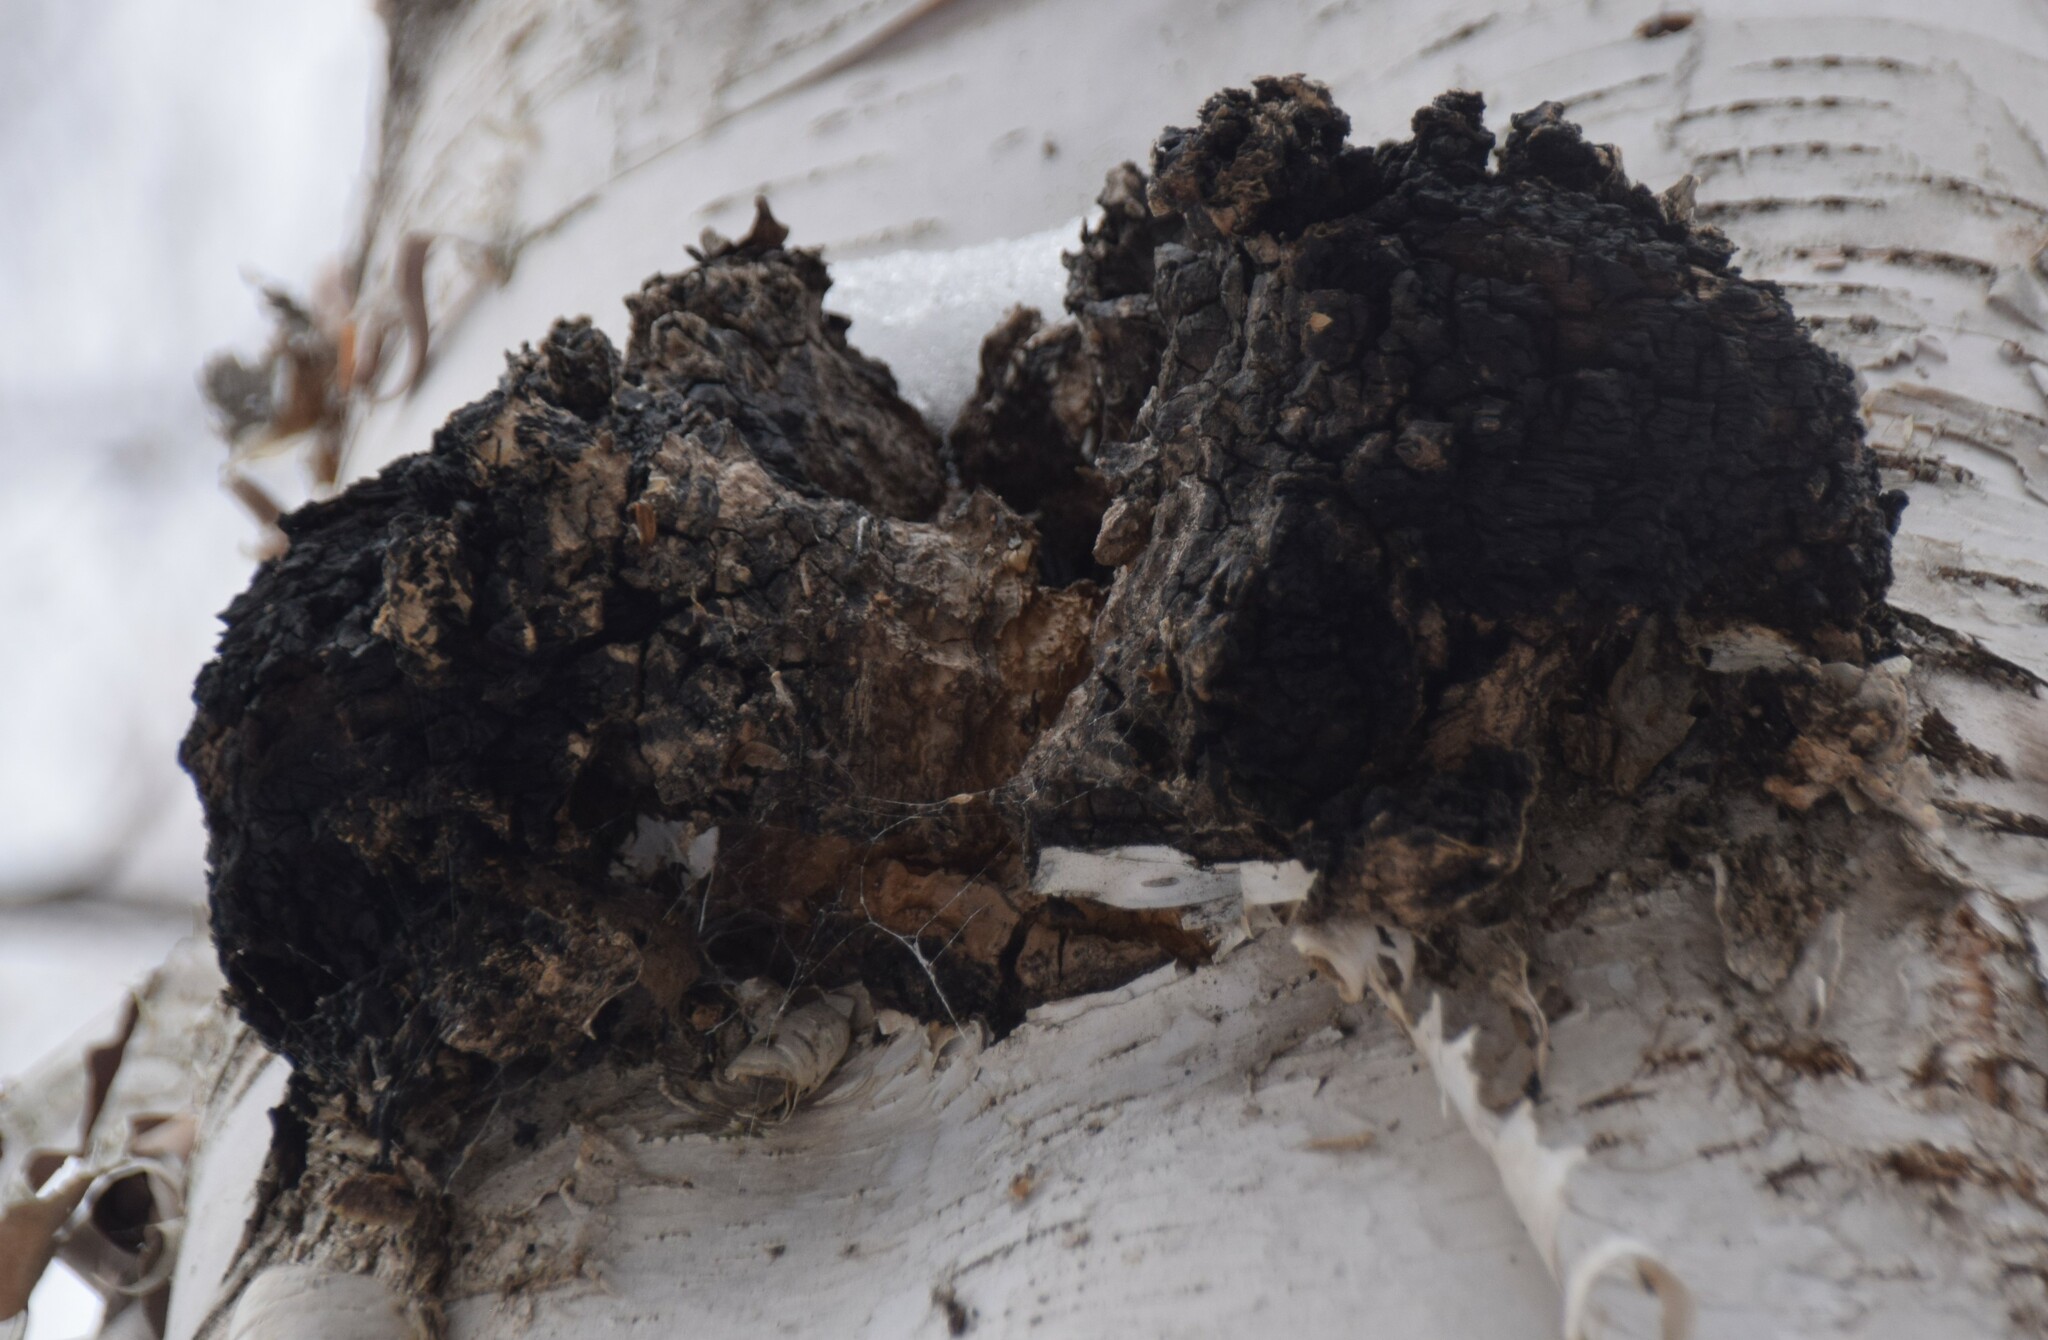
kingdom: Fungi
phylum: Basidiomycota
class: Agaricomycetes
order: Hymenochaetales
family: Hymenochaetaceae
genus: Inonotus
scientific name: Inonotus obliquus
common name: Chaga
